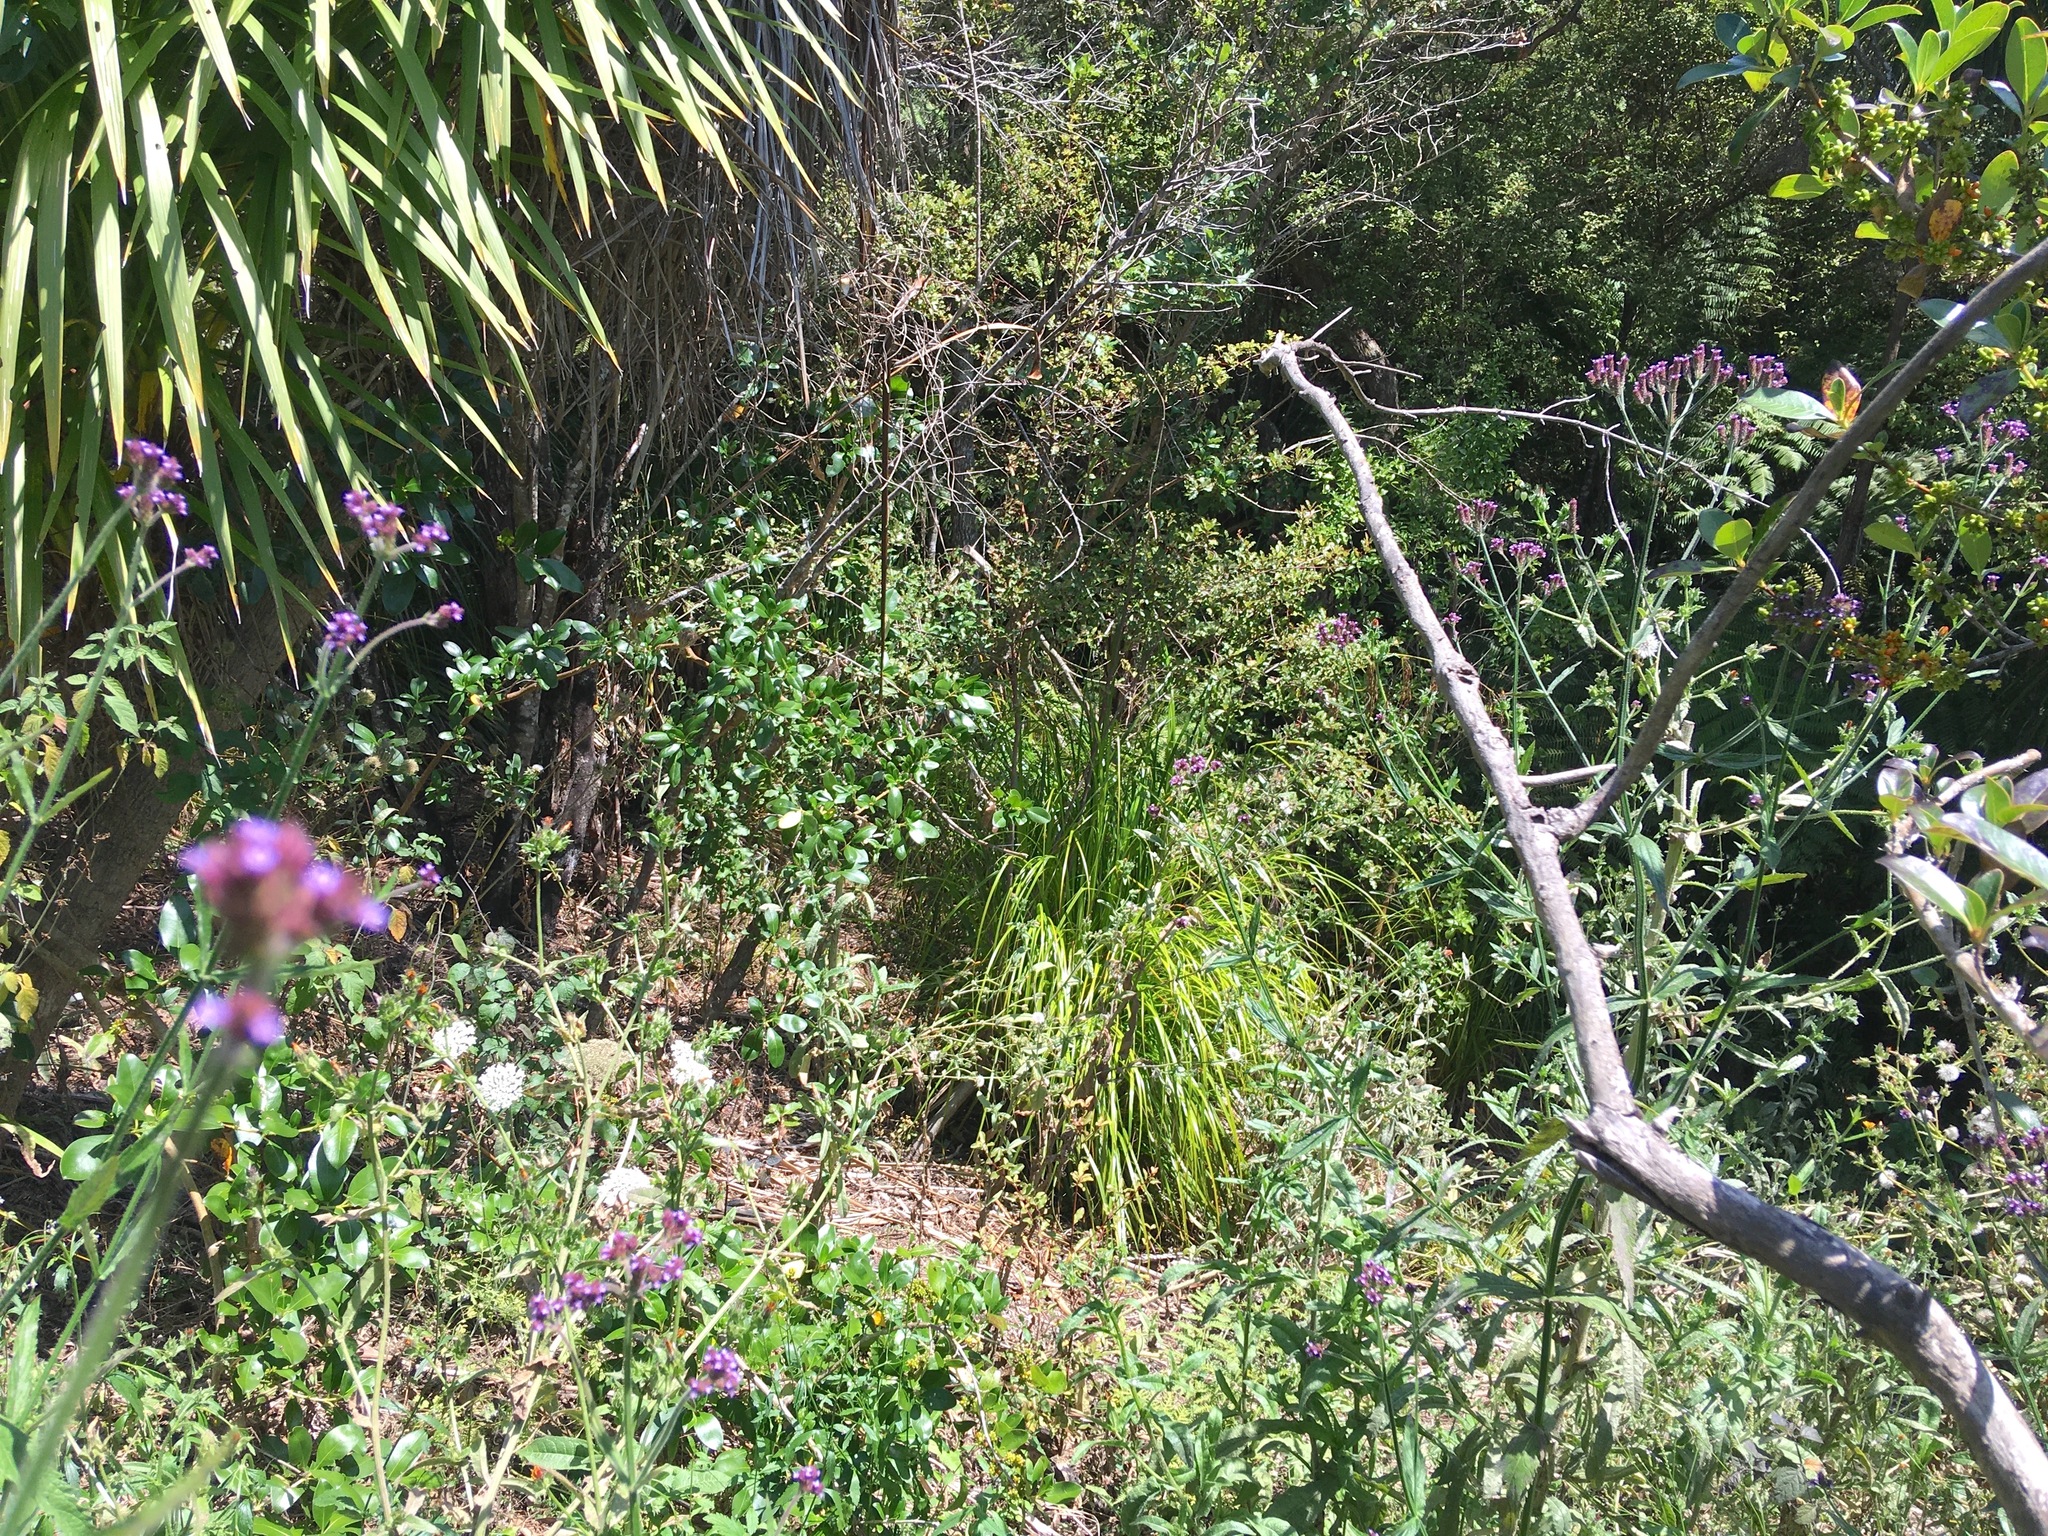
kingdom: Plantae
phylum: Tracheophyta
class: Magnoliopsida
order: Lamiales
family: Verbenaceae
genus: Verbena
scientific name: Verbena incompta
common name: Purpletop vervain
